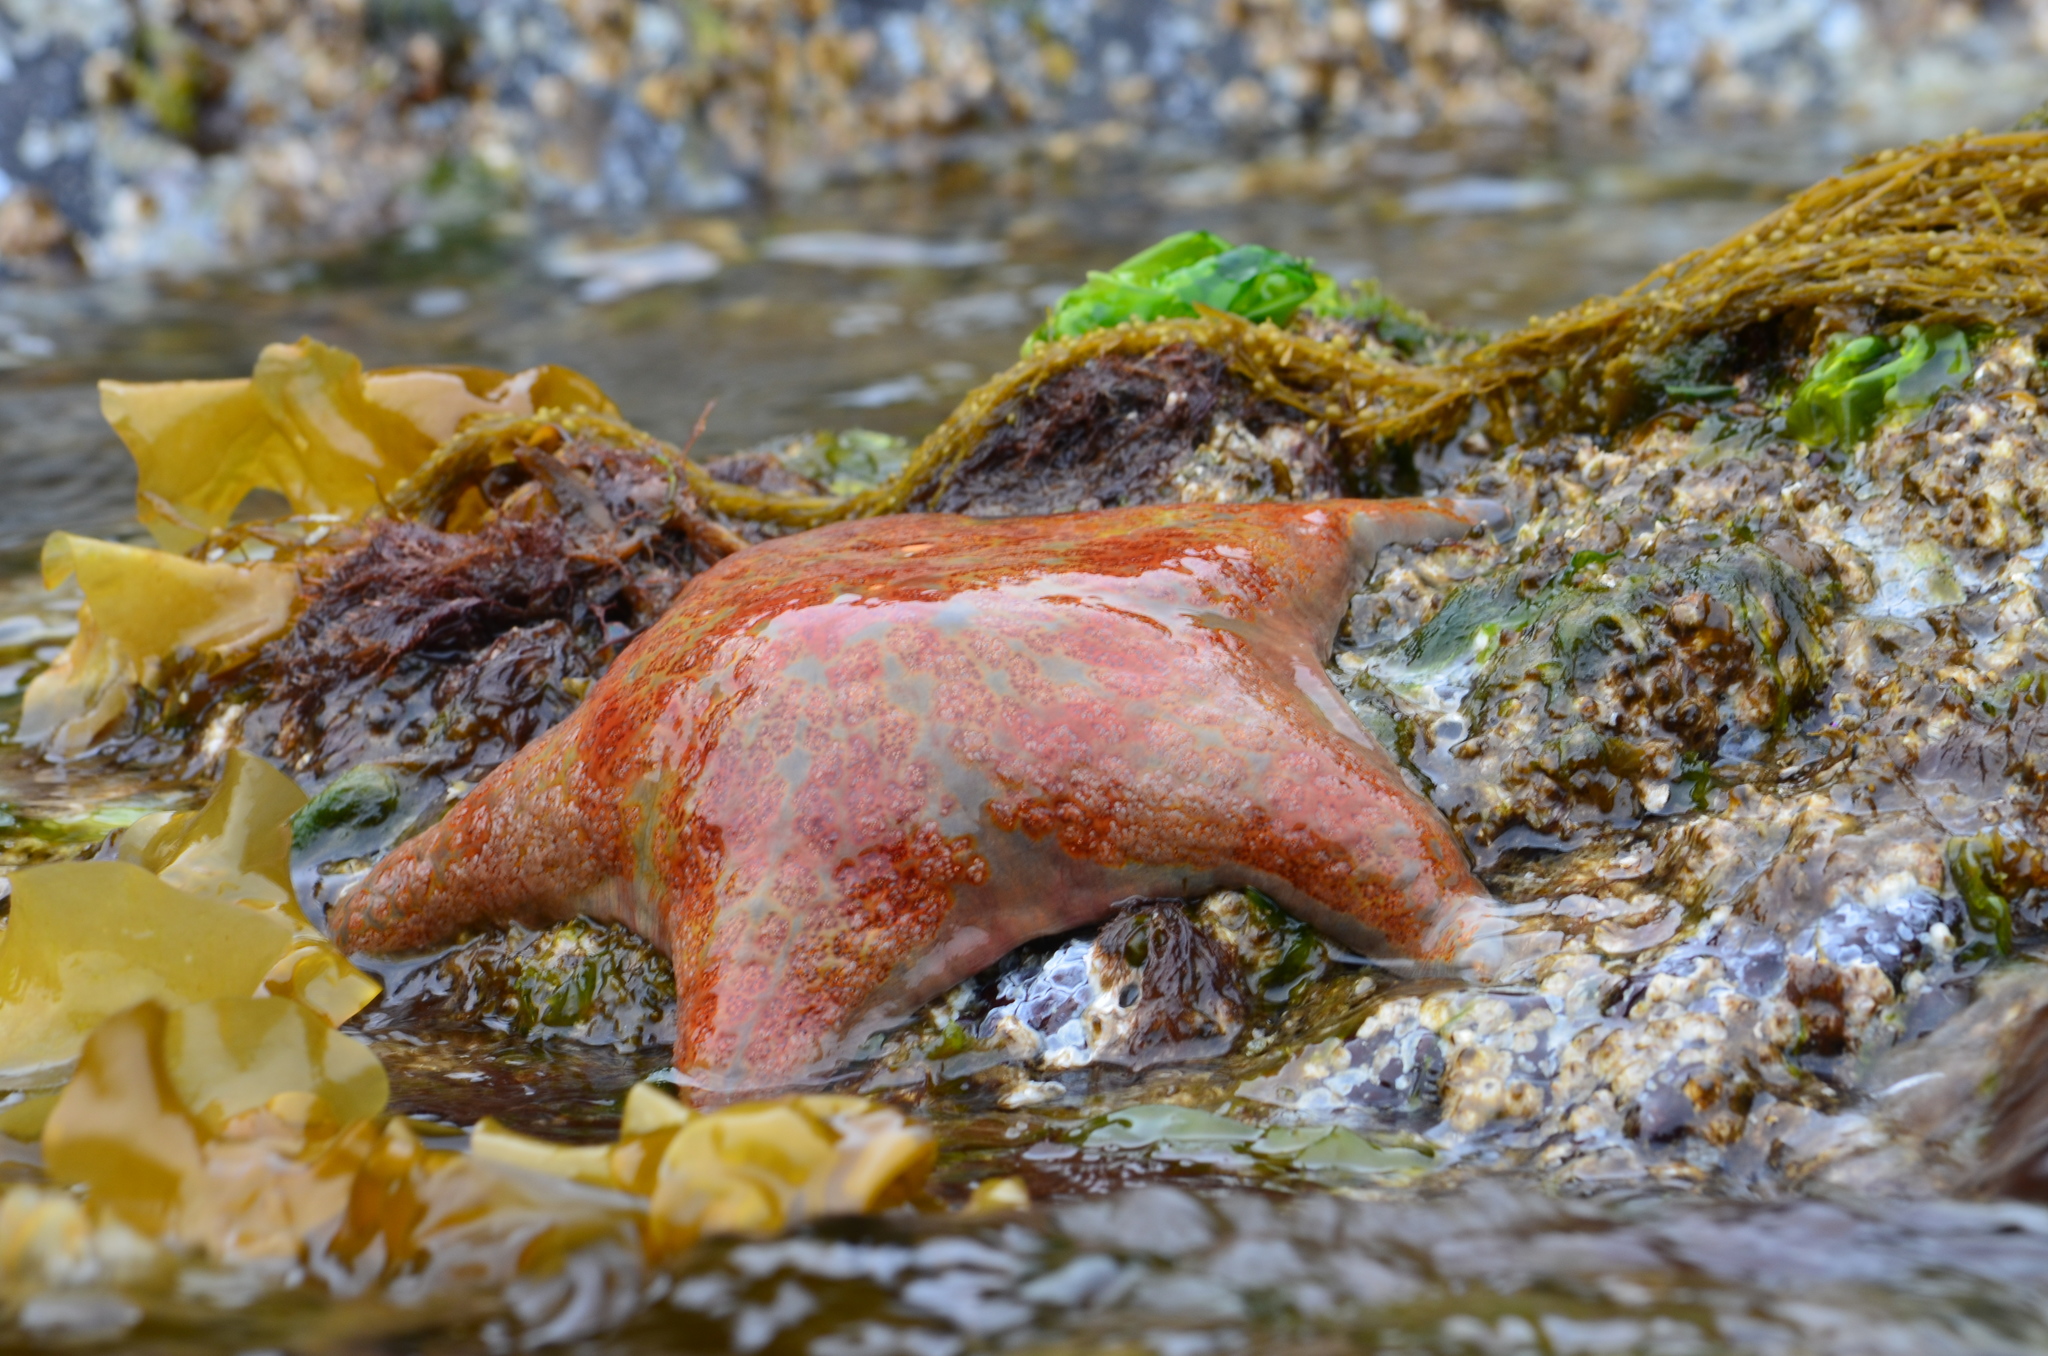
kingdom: Animalia
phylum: Echinodermata
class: Asteroidea
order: Valvatida
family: Asteropseidae
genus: Dermasterias
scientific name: Dermasterias imbricata
